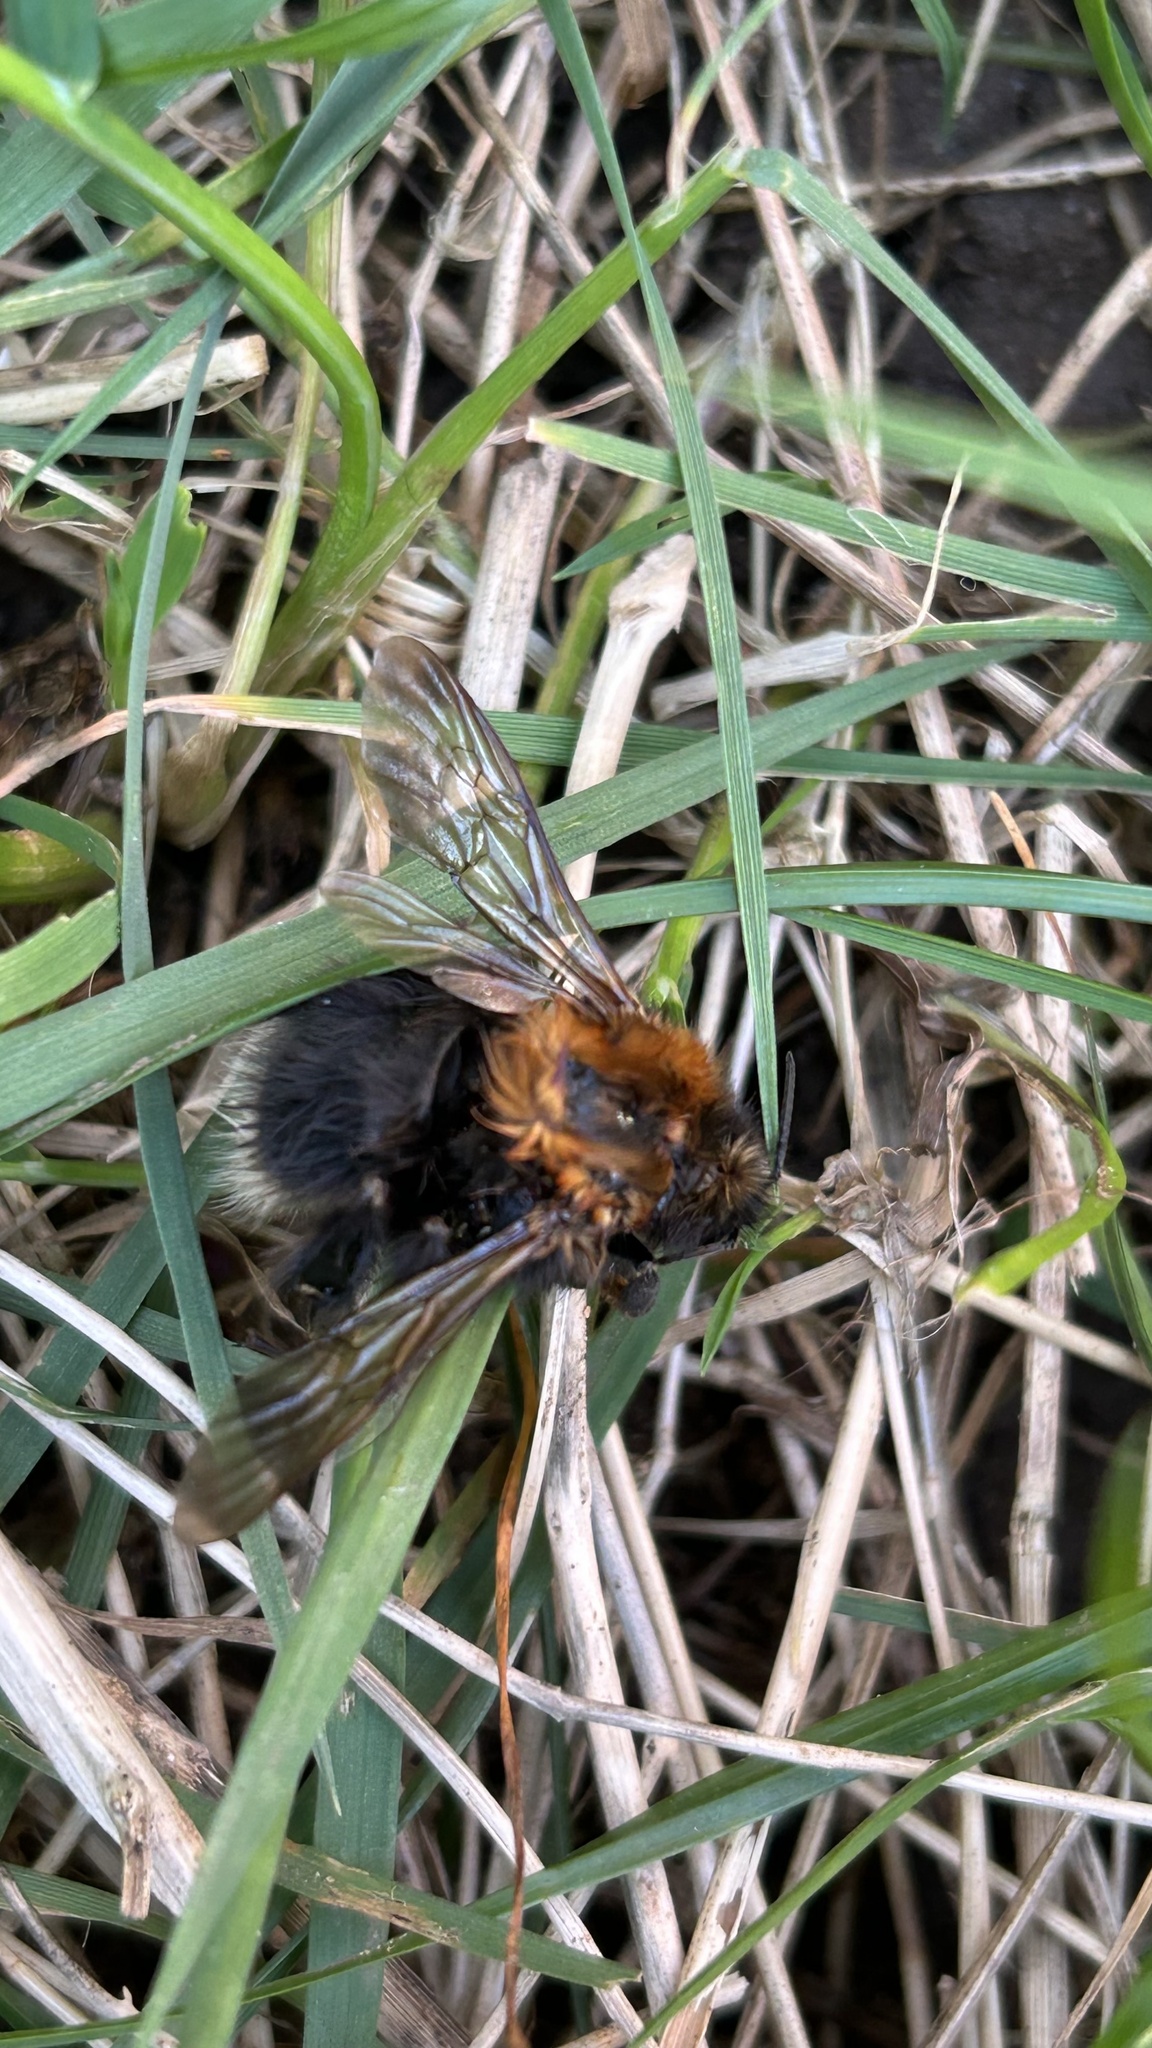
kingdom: Animalia
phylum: Arthropoda
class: Insecta
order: Hymenoptera
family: Apidae
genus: Bombus
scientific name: Bombus hypnorum
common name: New garden bumblebee
